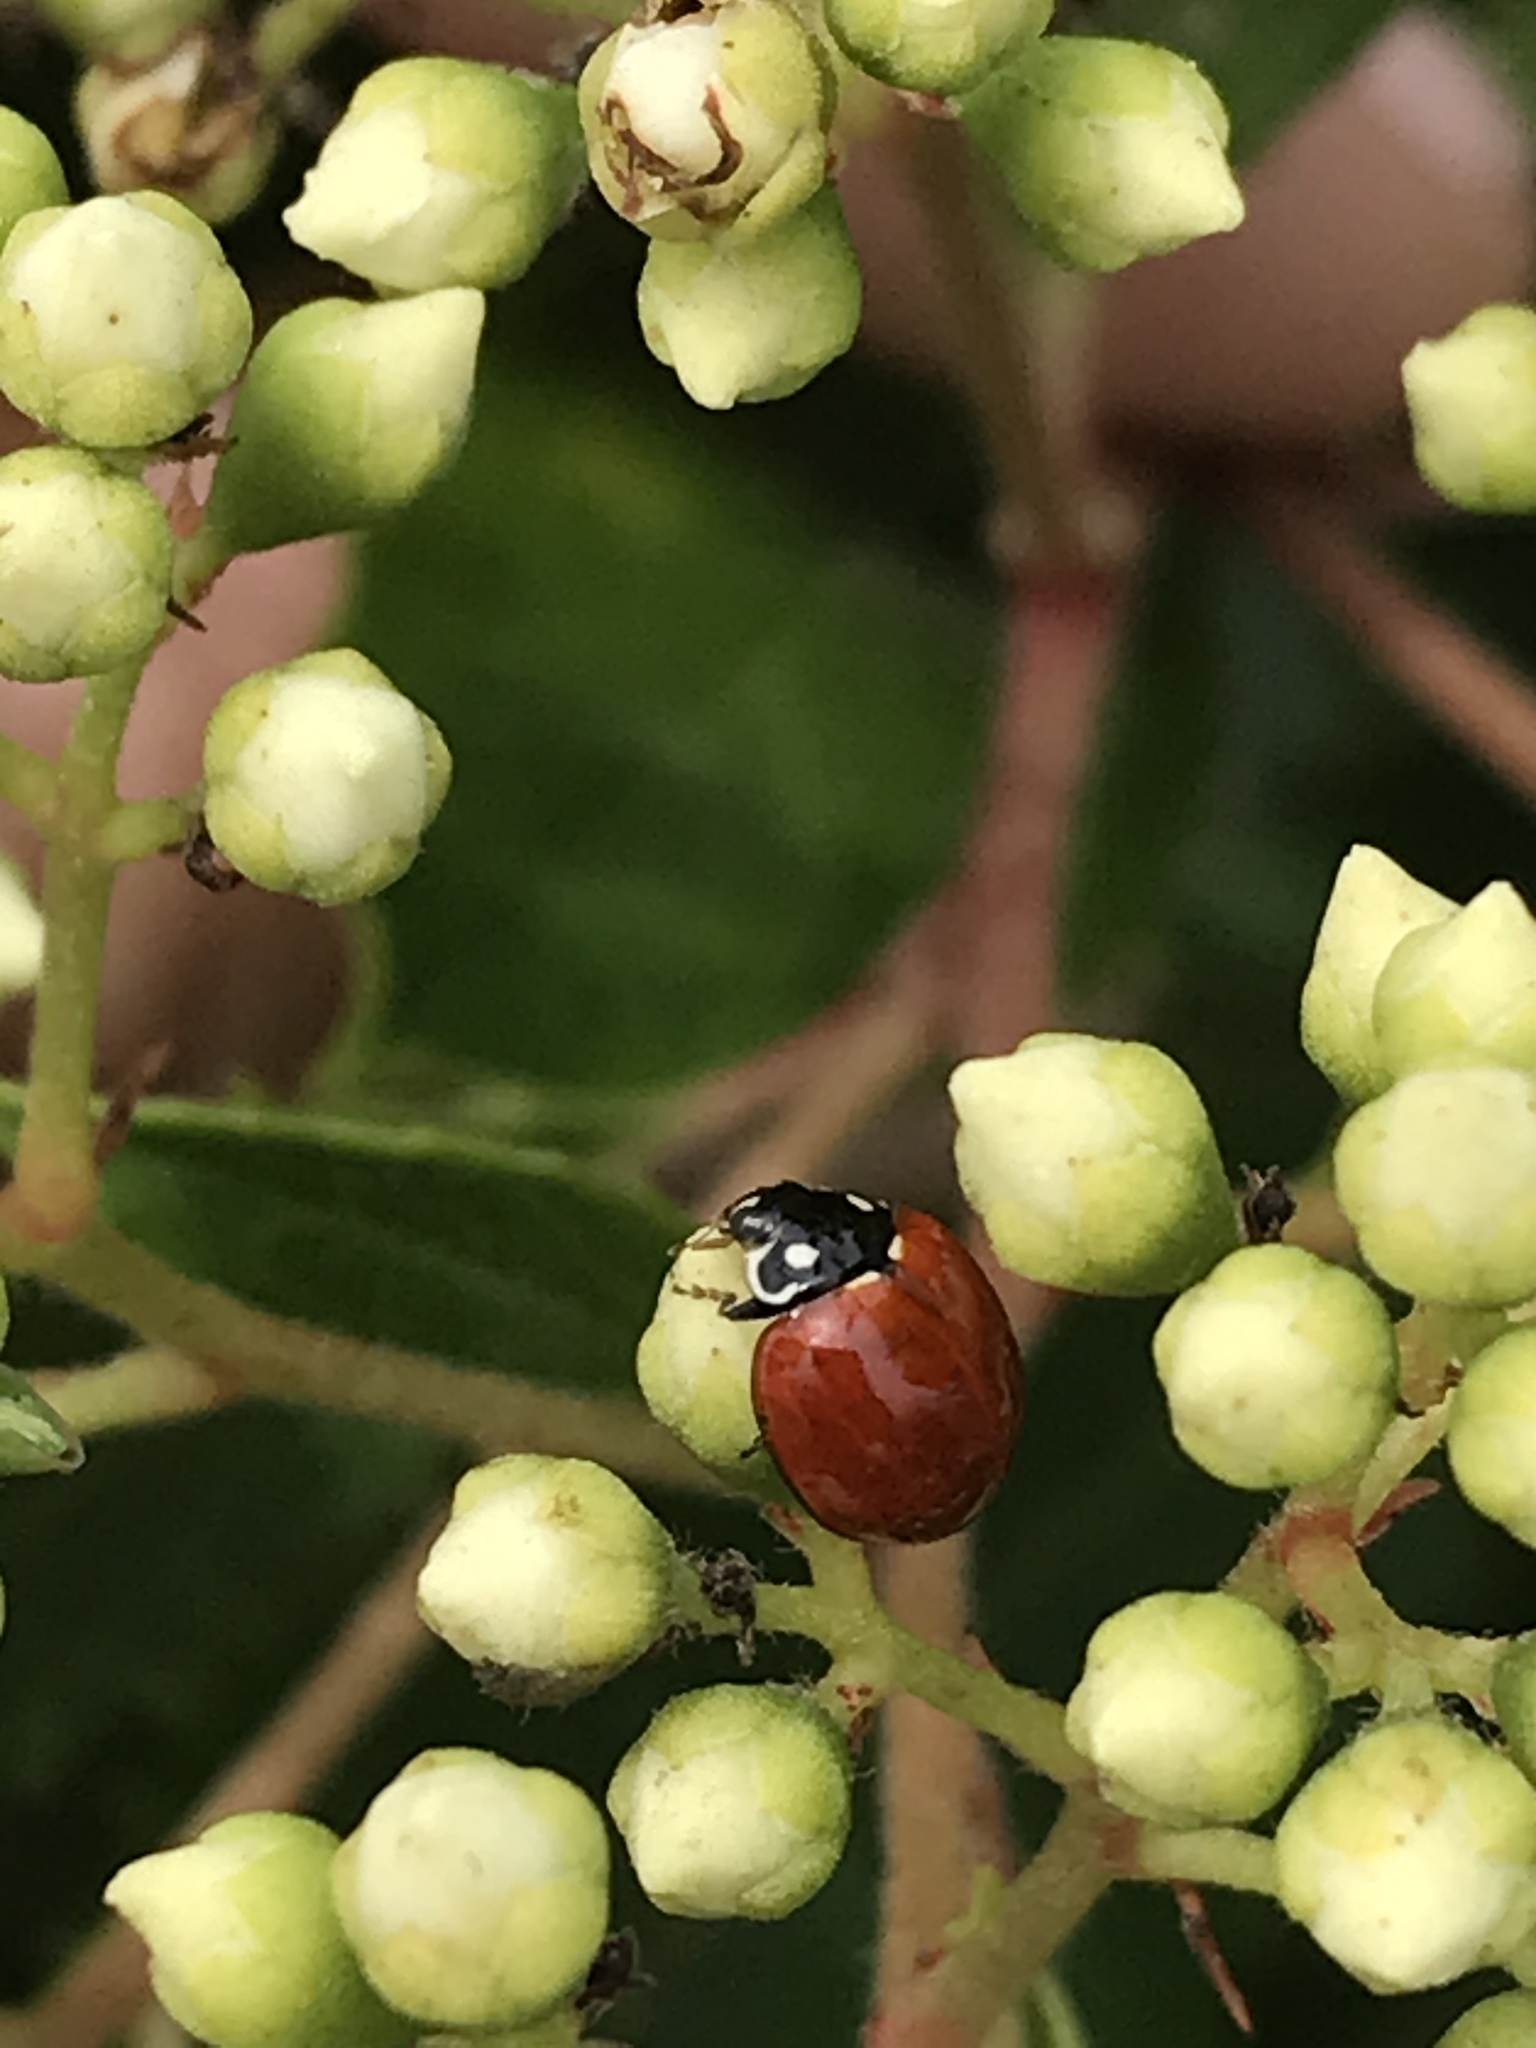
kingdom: Animalia
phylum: Arthropoda
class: Insecta
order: Coleoptera
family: Coccinellidae
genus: Cycloneda
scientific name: Cycloneda sanguinea
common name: Ladybird beetle
